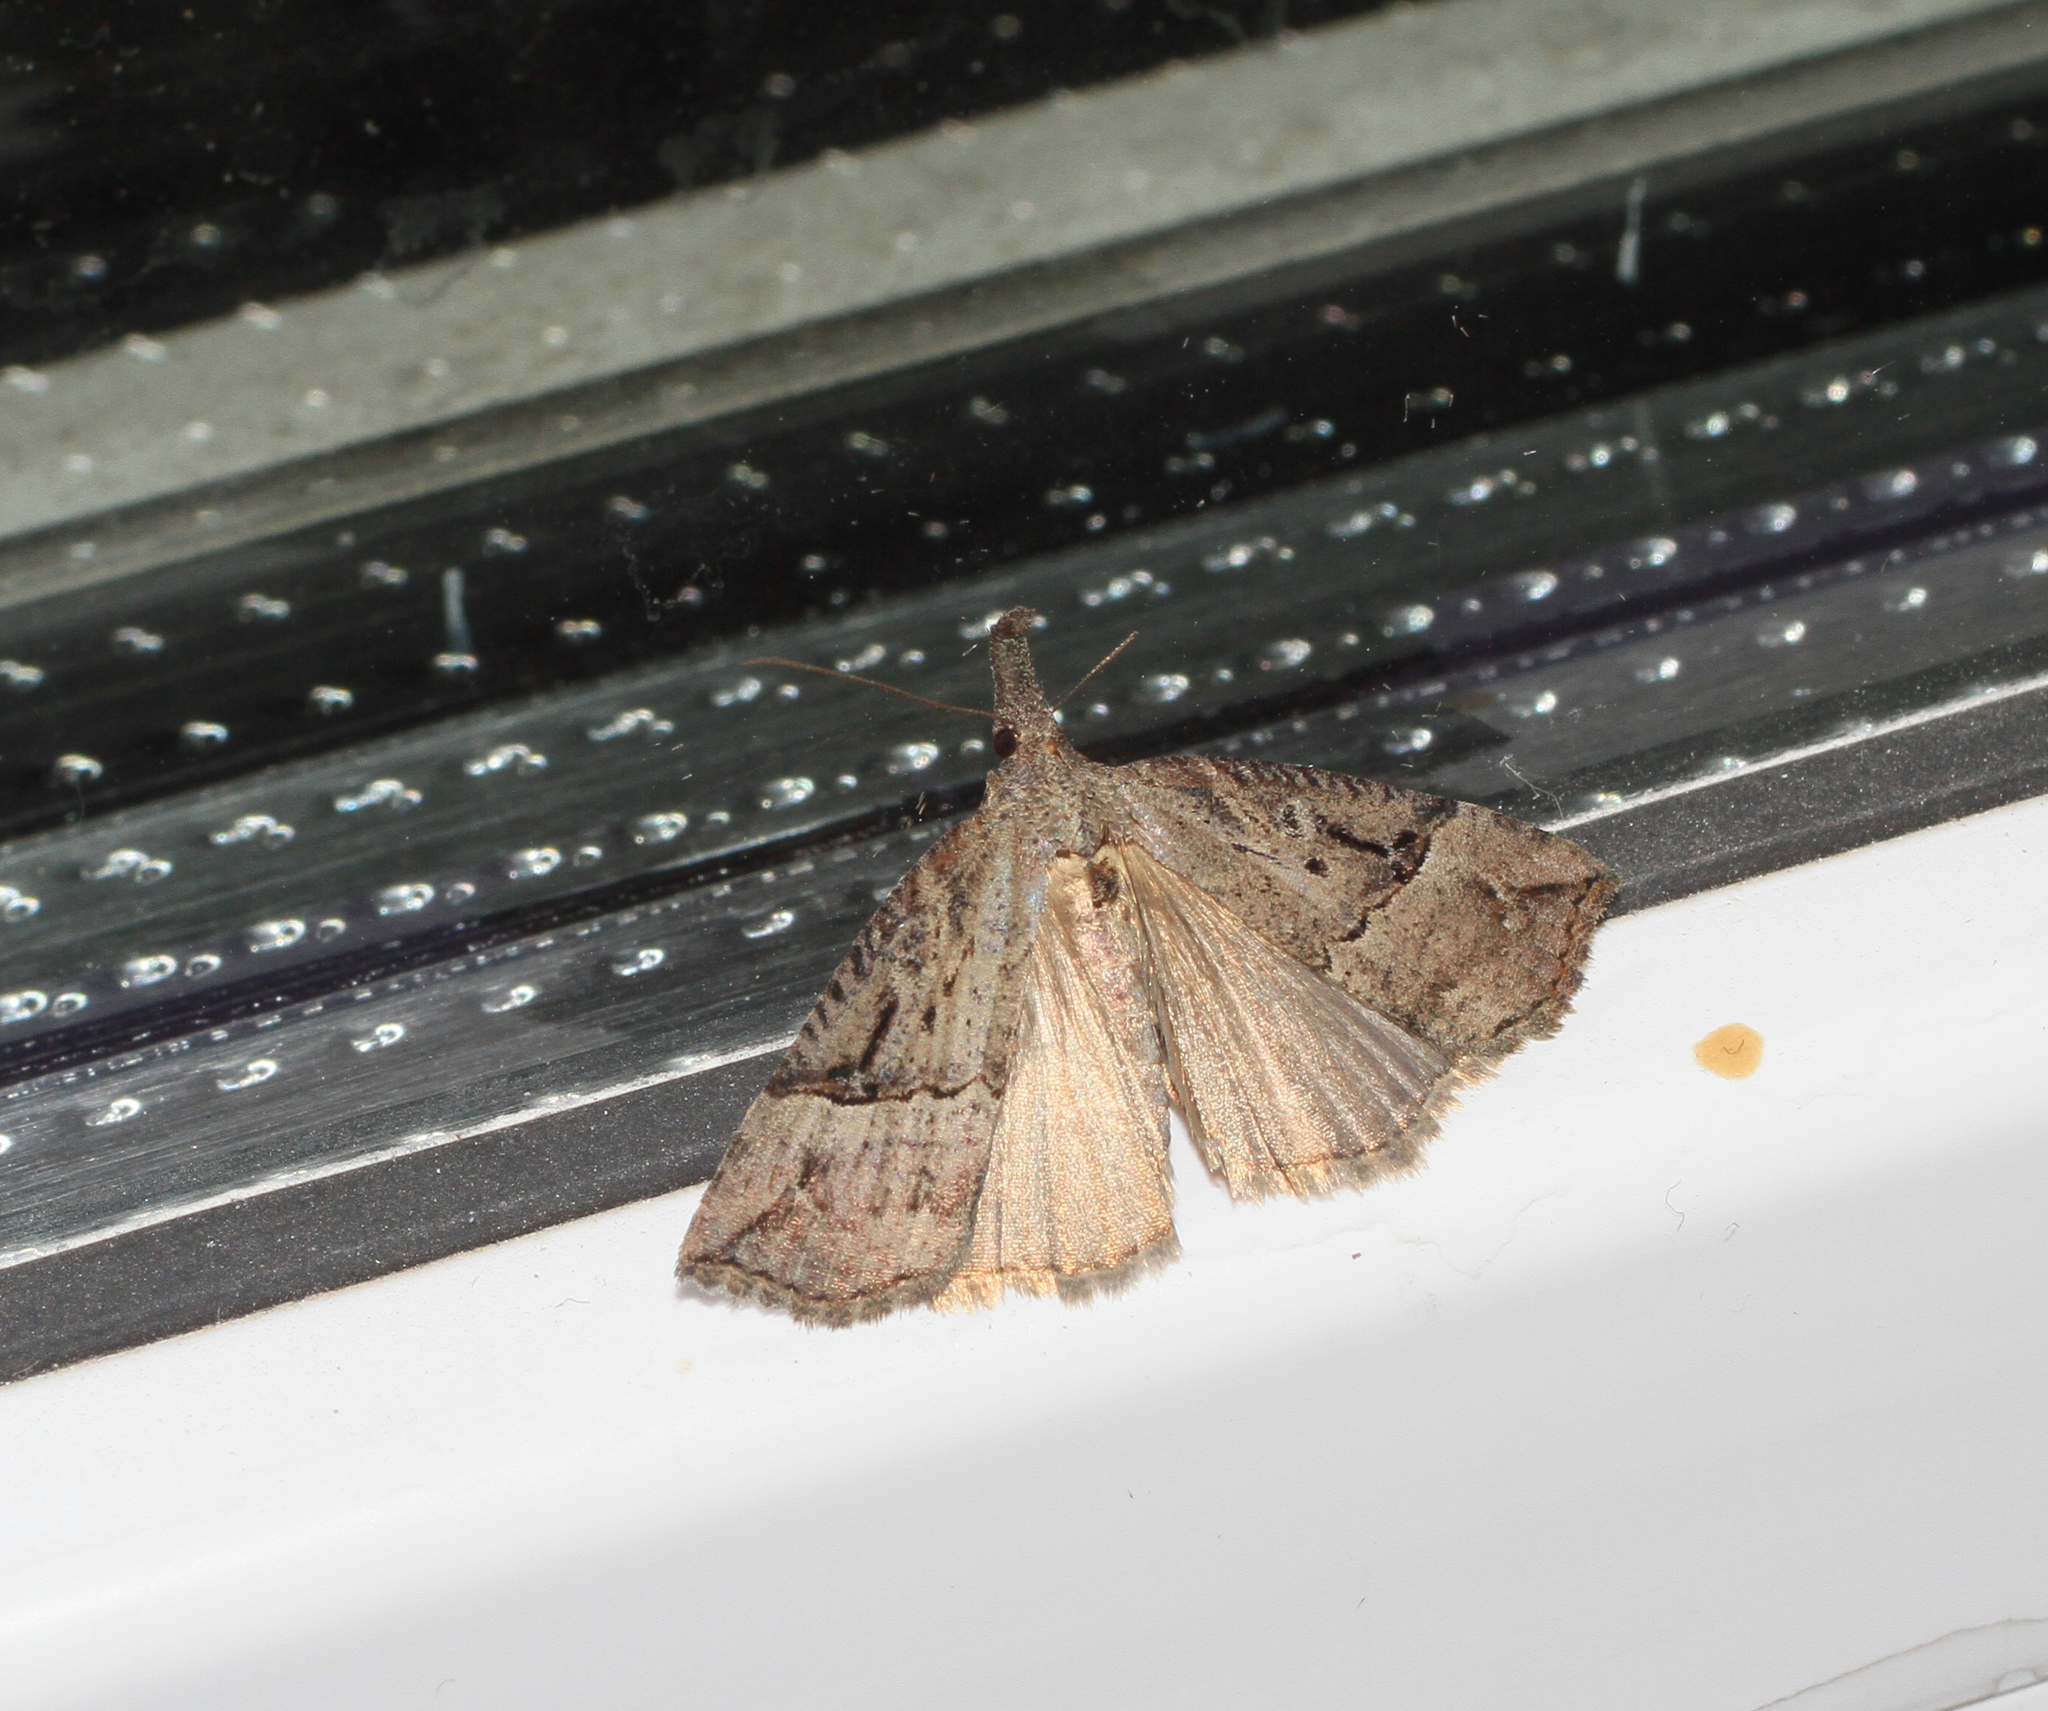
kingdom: Animalia
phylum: Arthropoda
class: Insecta
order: Lepidoptera
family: Erebidae
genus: Hypena
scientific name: Hypena rostralis
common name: Buttoned snout
